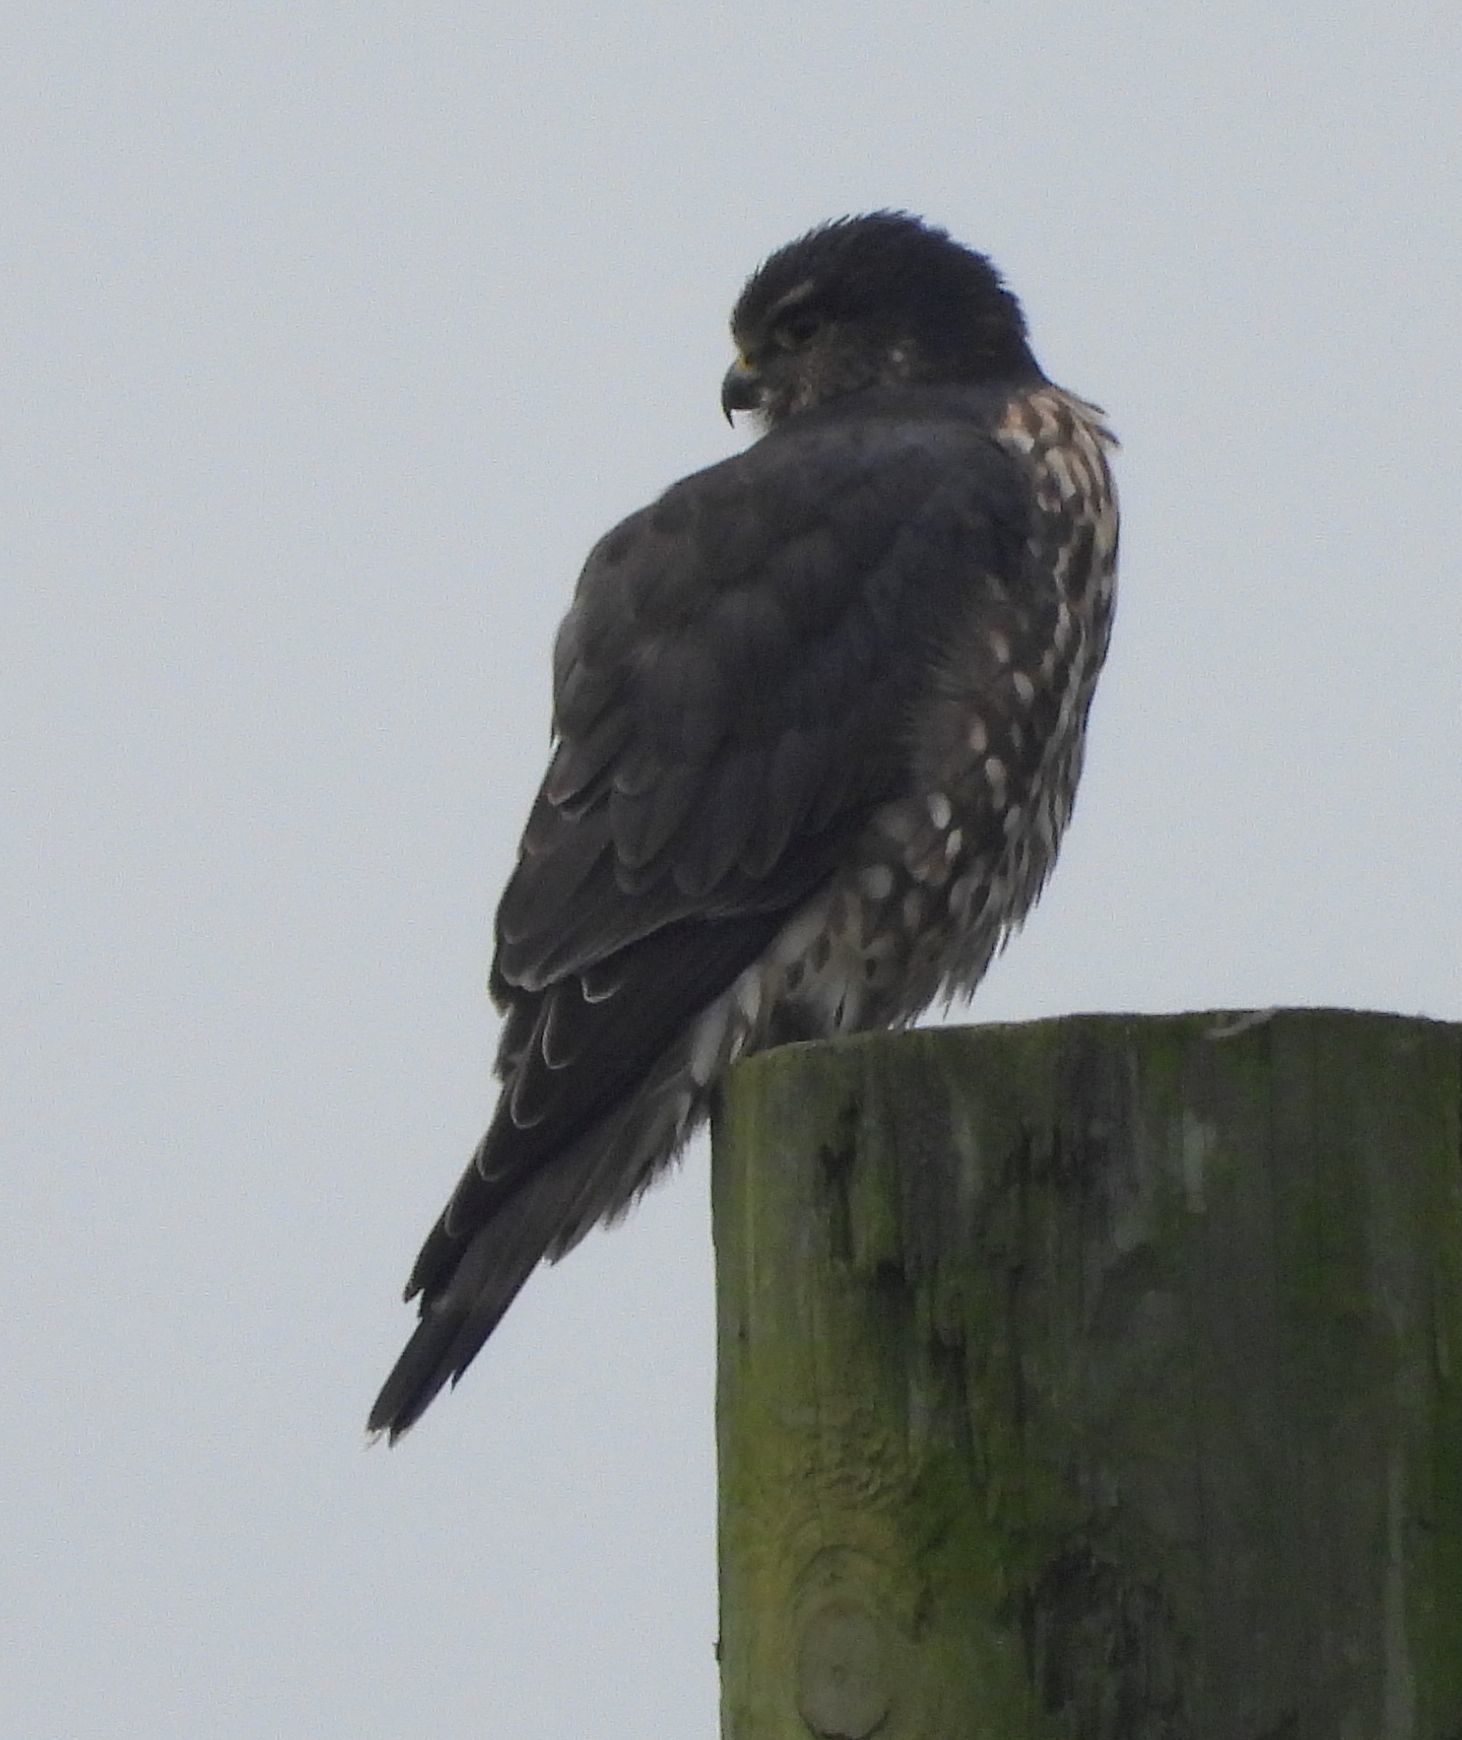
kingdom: Animalia
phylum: Chordata
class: Aves
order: Falconiformes
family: Falconidae
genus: Falco
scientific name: Falco columbarius
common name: Merlin
